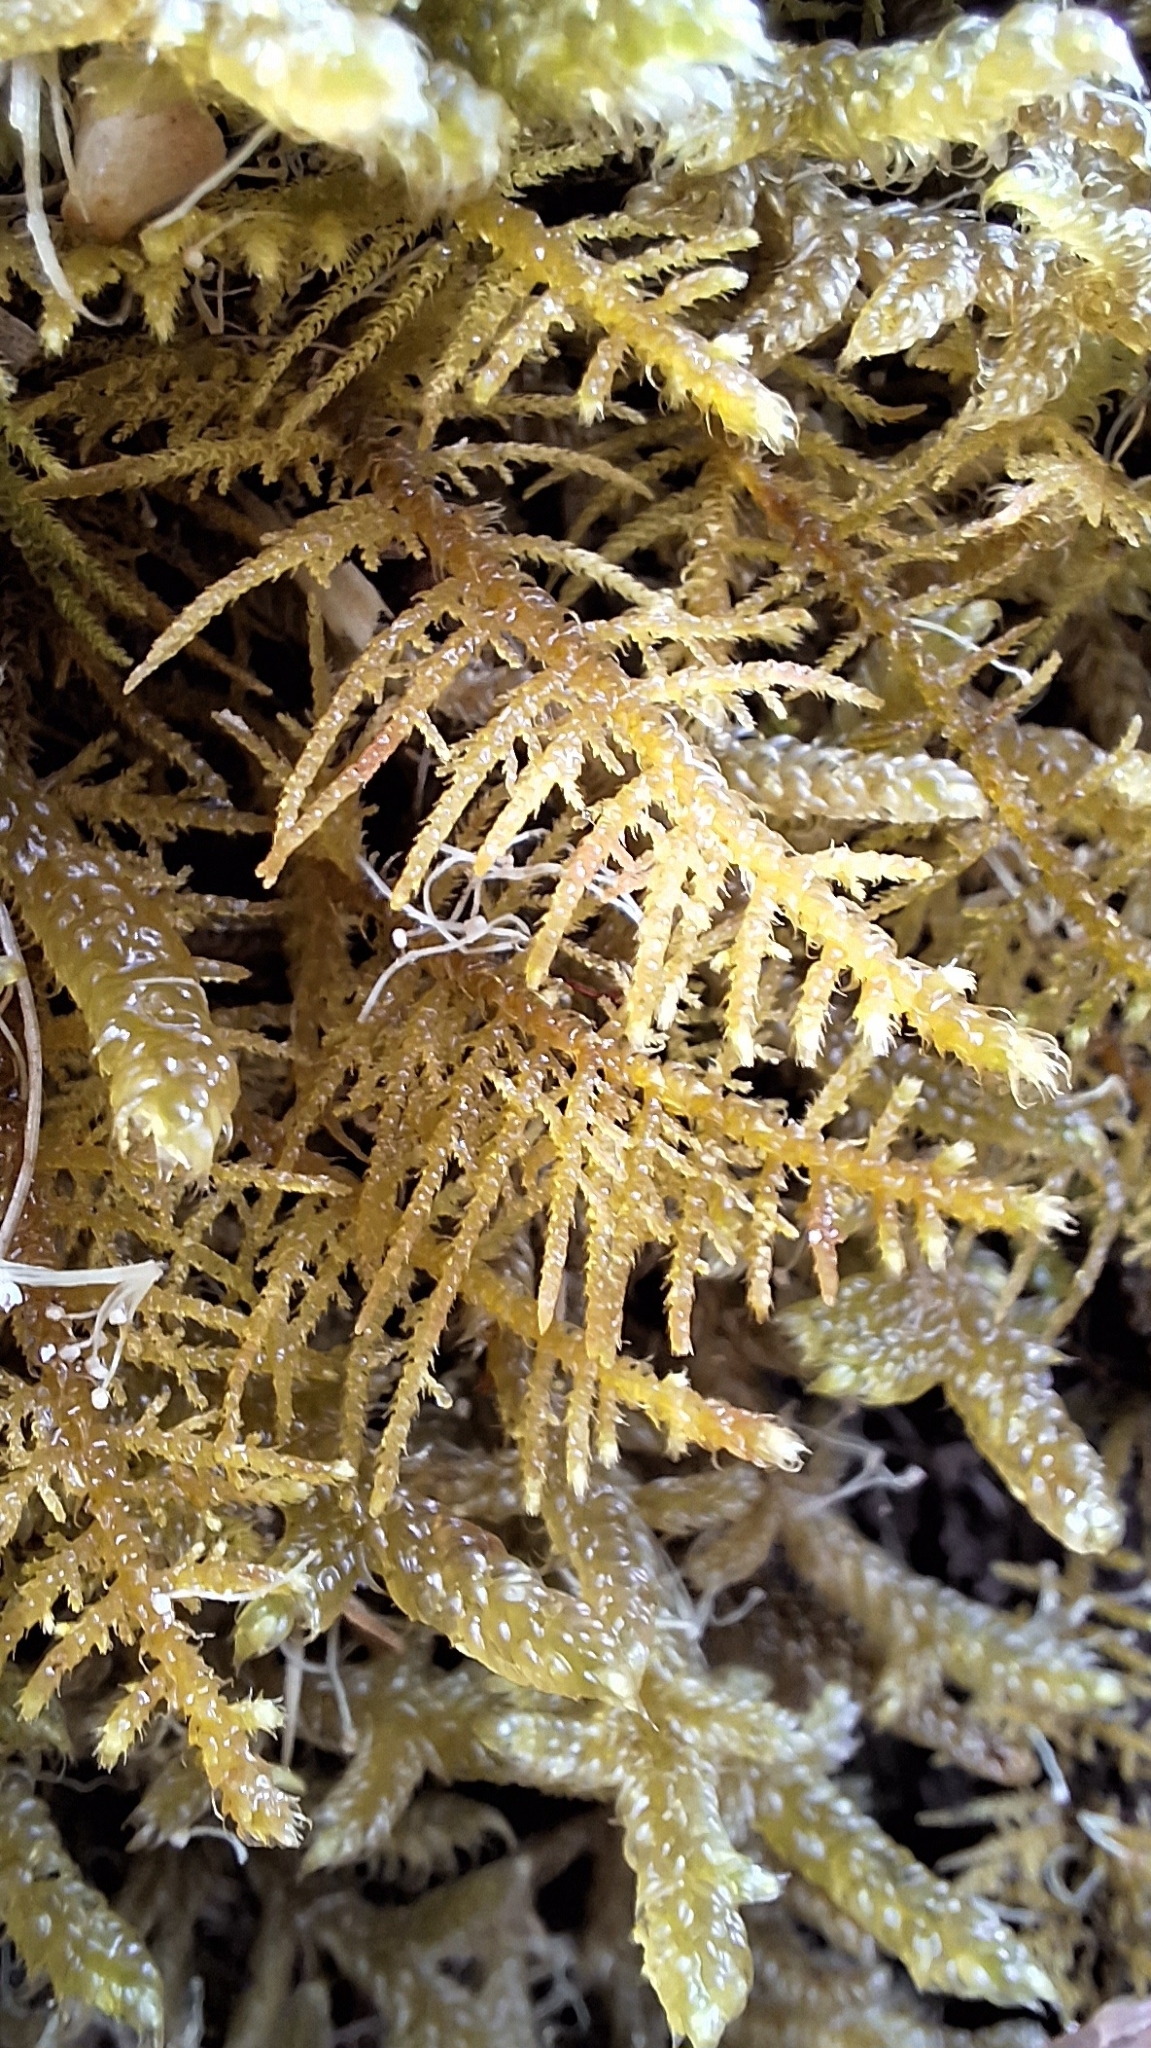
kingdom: Plantae
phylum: Bryophyta
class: Bryopsida
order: Hypnales
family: Thuidiaceae
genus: Thuidiopsis
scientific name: Thuidiopsis sparsa
